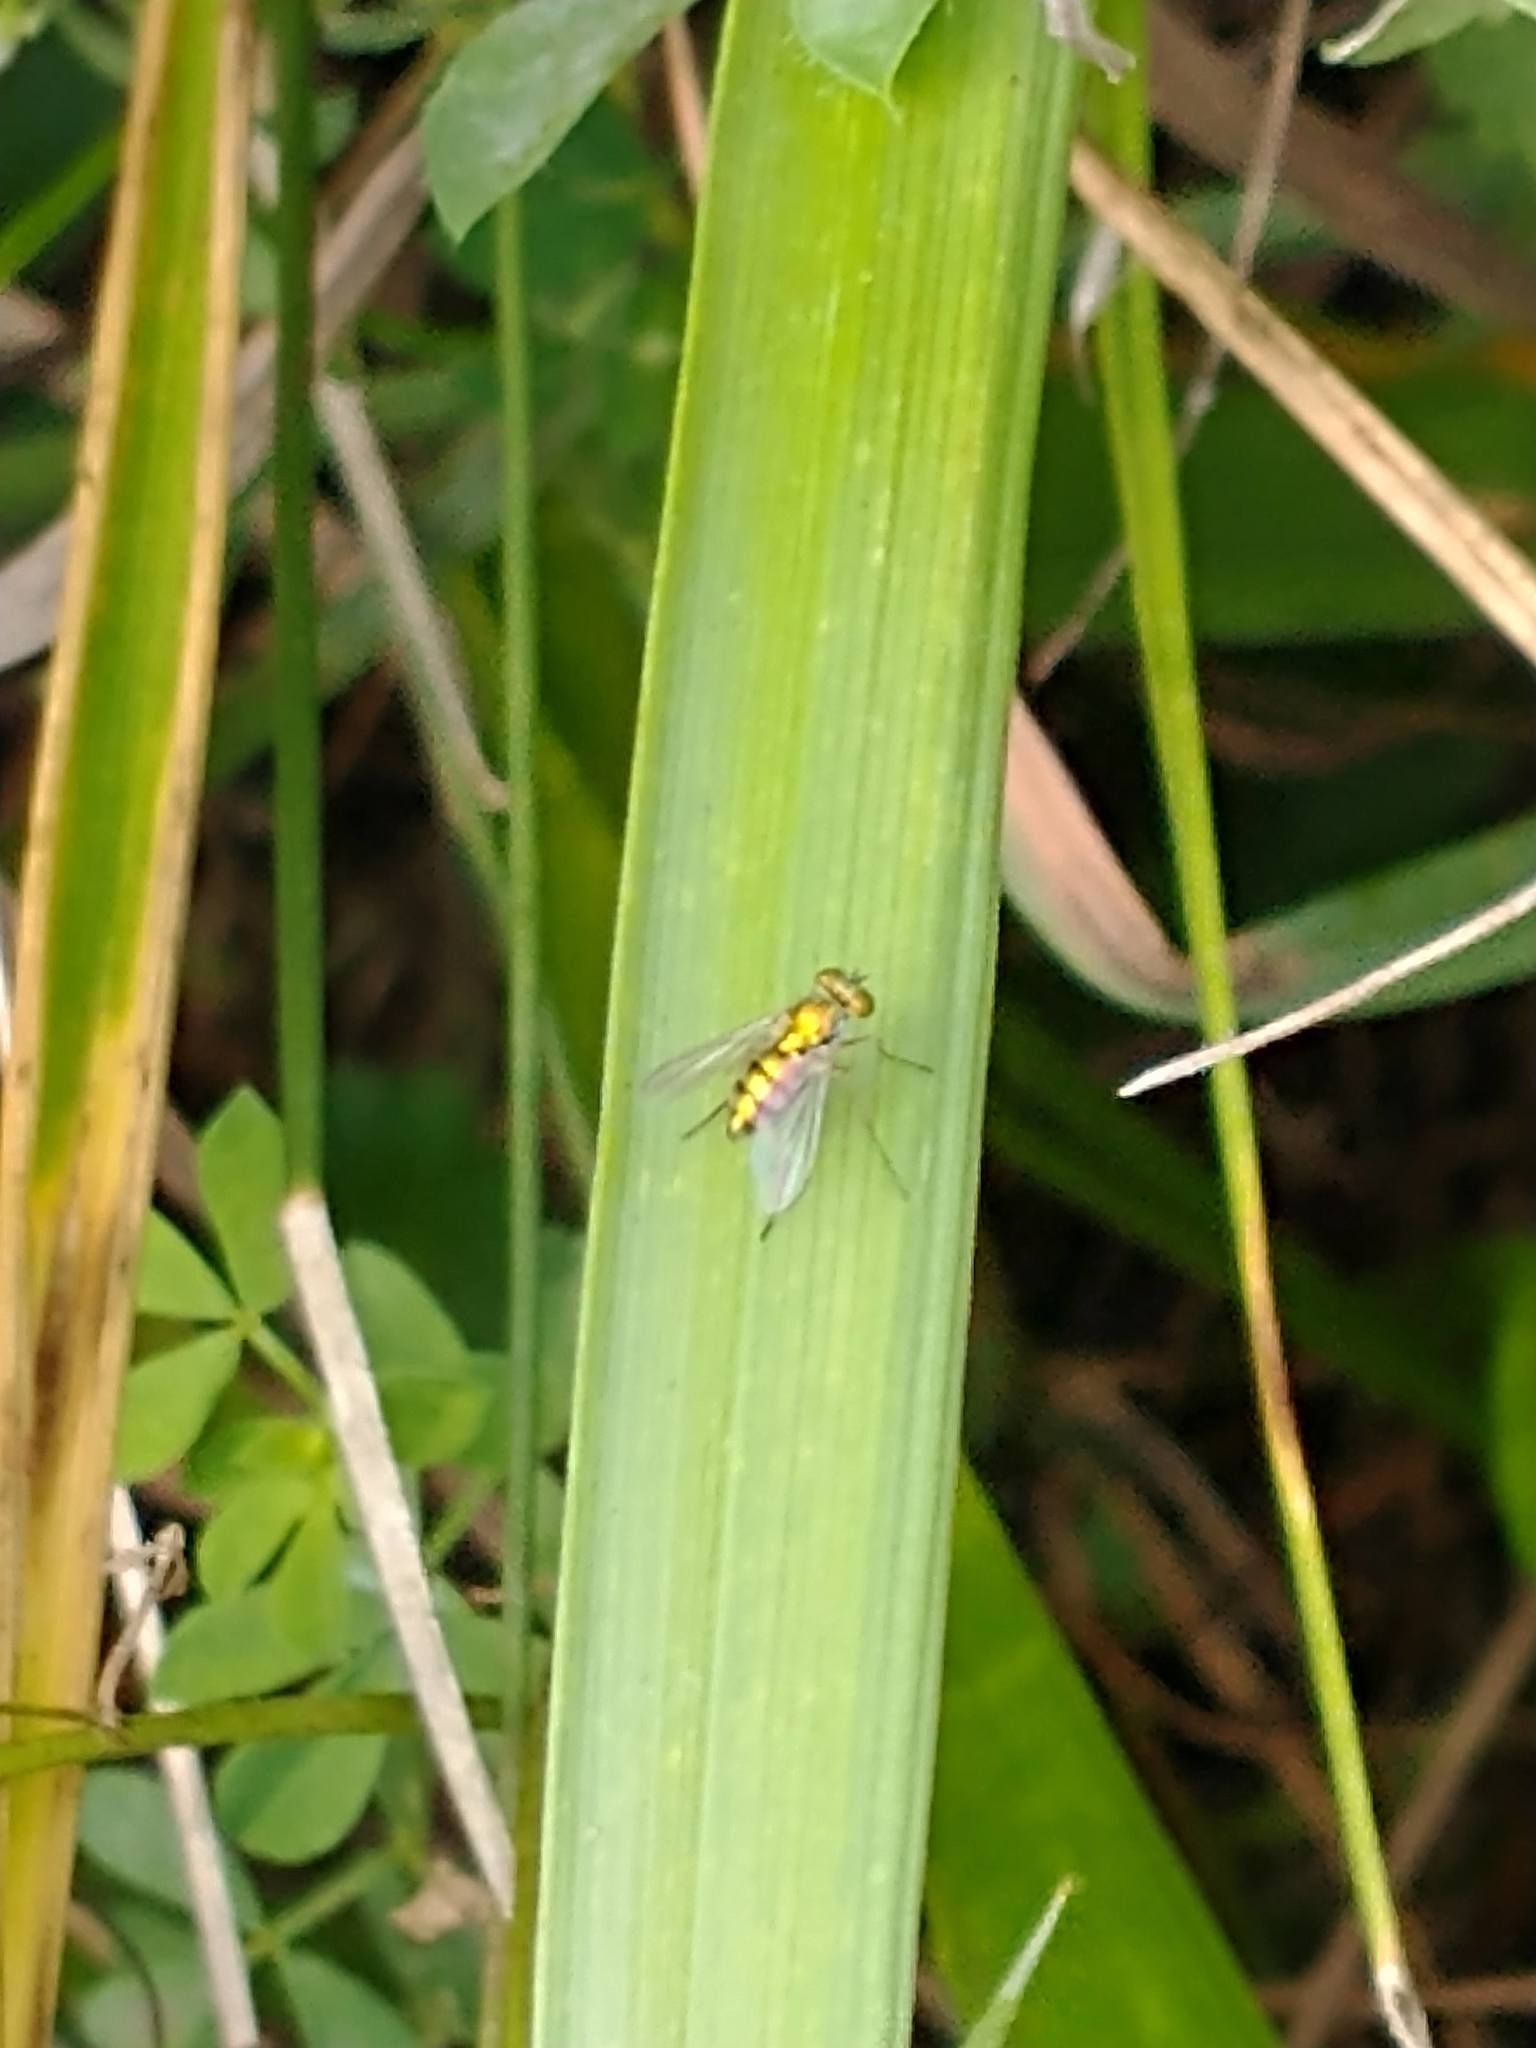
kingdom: Animalia
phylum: Arthropoda
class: Insecta
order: Diptera
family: Dolichopodidae
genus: Condylostylus
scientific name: Condylostylus
